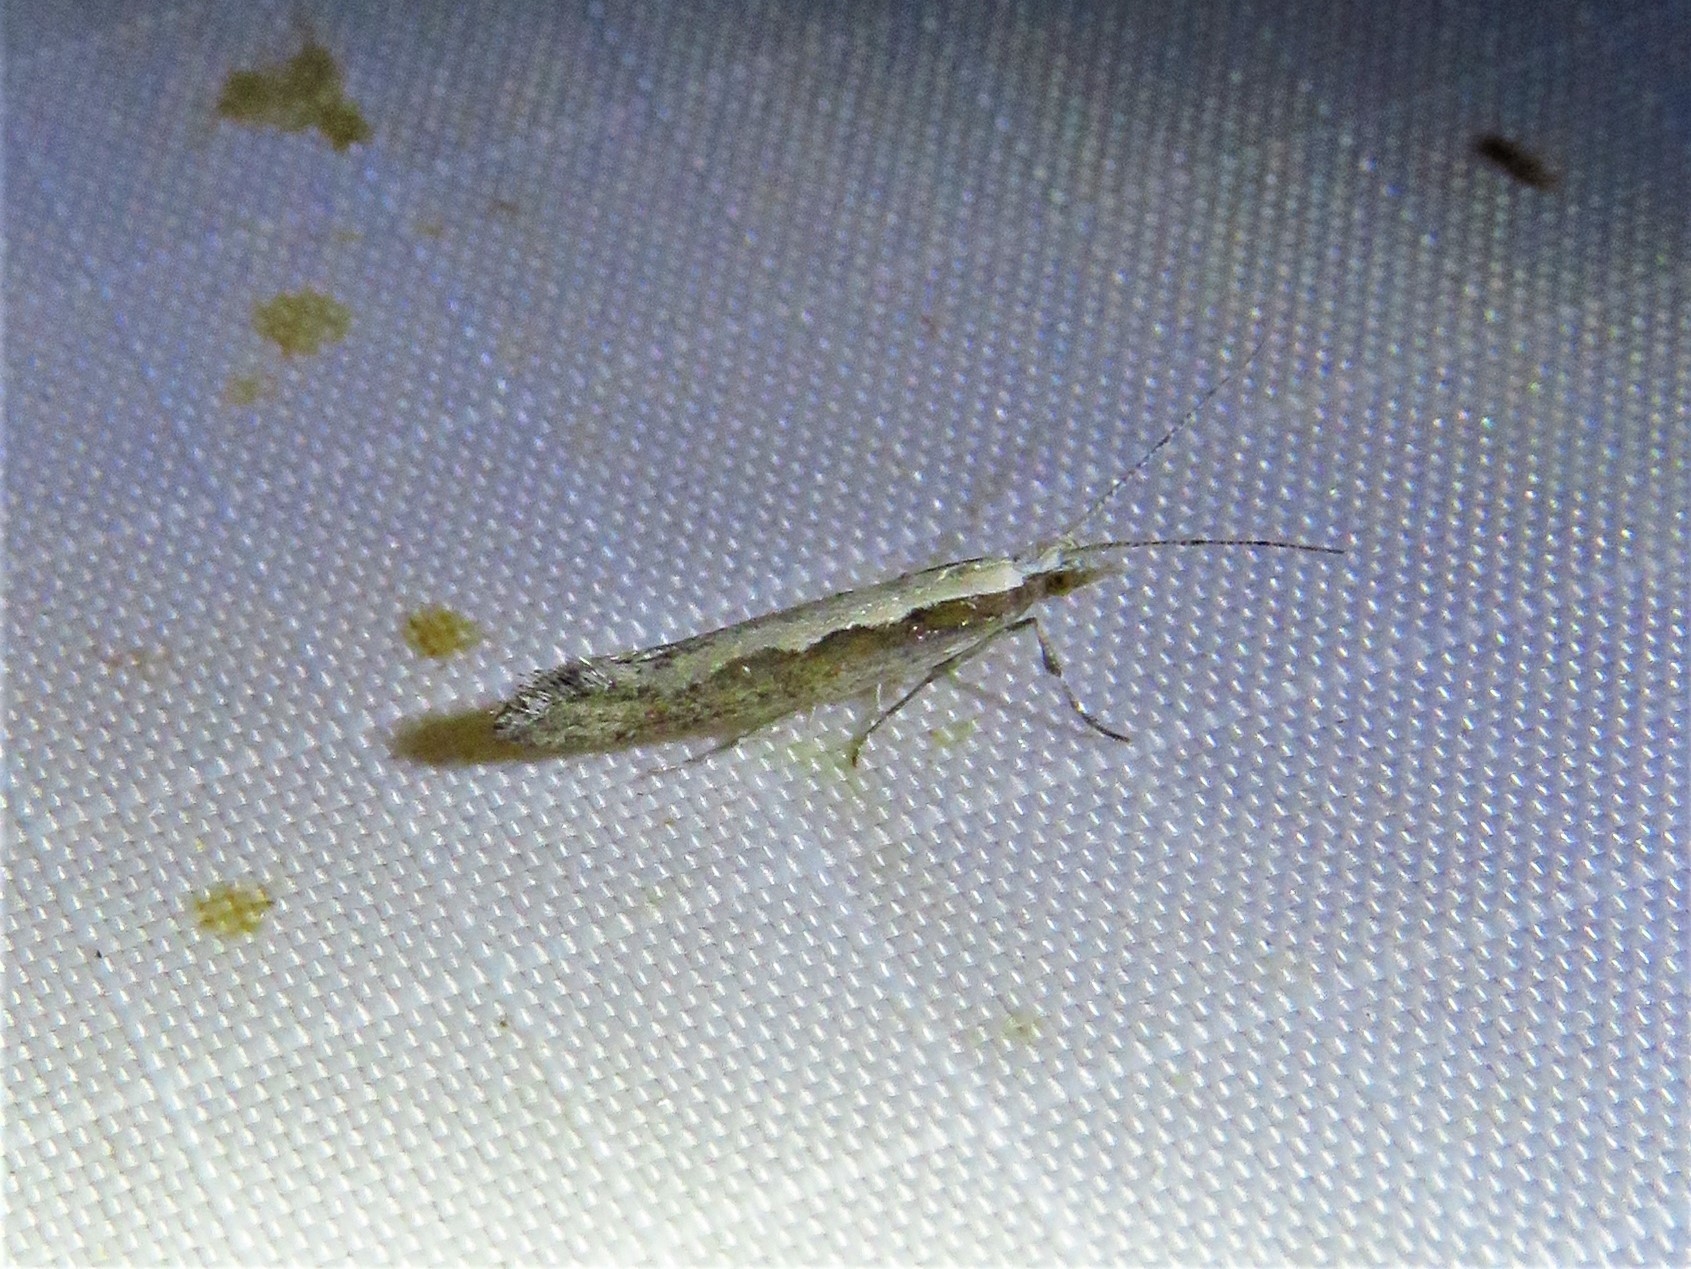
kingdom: Animalia
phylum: Arthropoda
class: Insecta
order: Lepidoptera
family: Plutellidae
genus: Plutella
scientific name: Plutella xylostella
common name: Diamond-back moth
